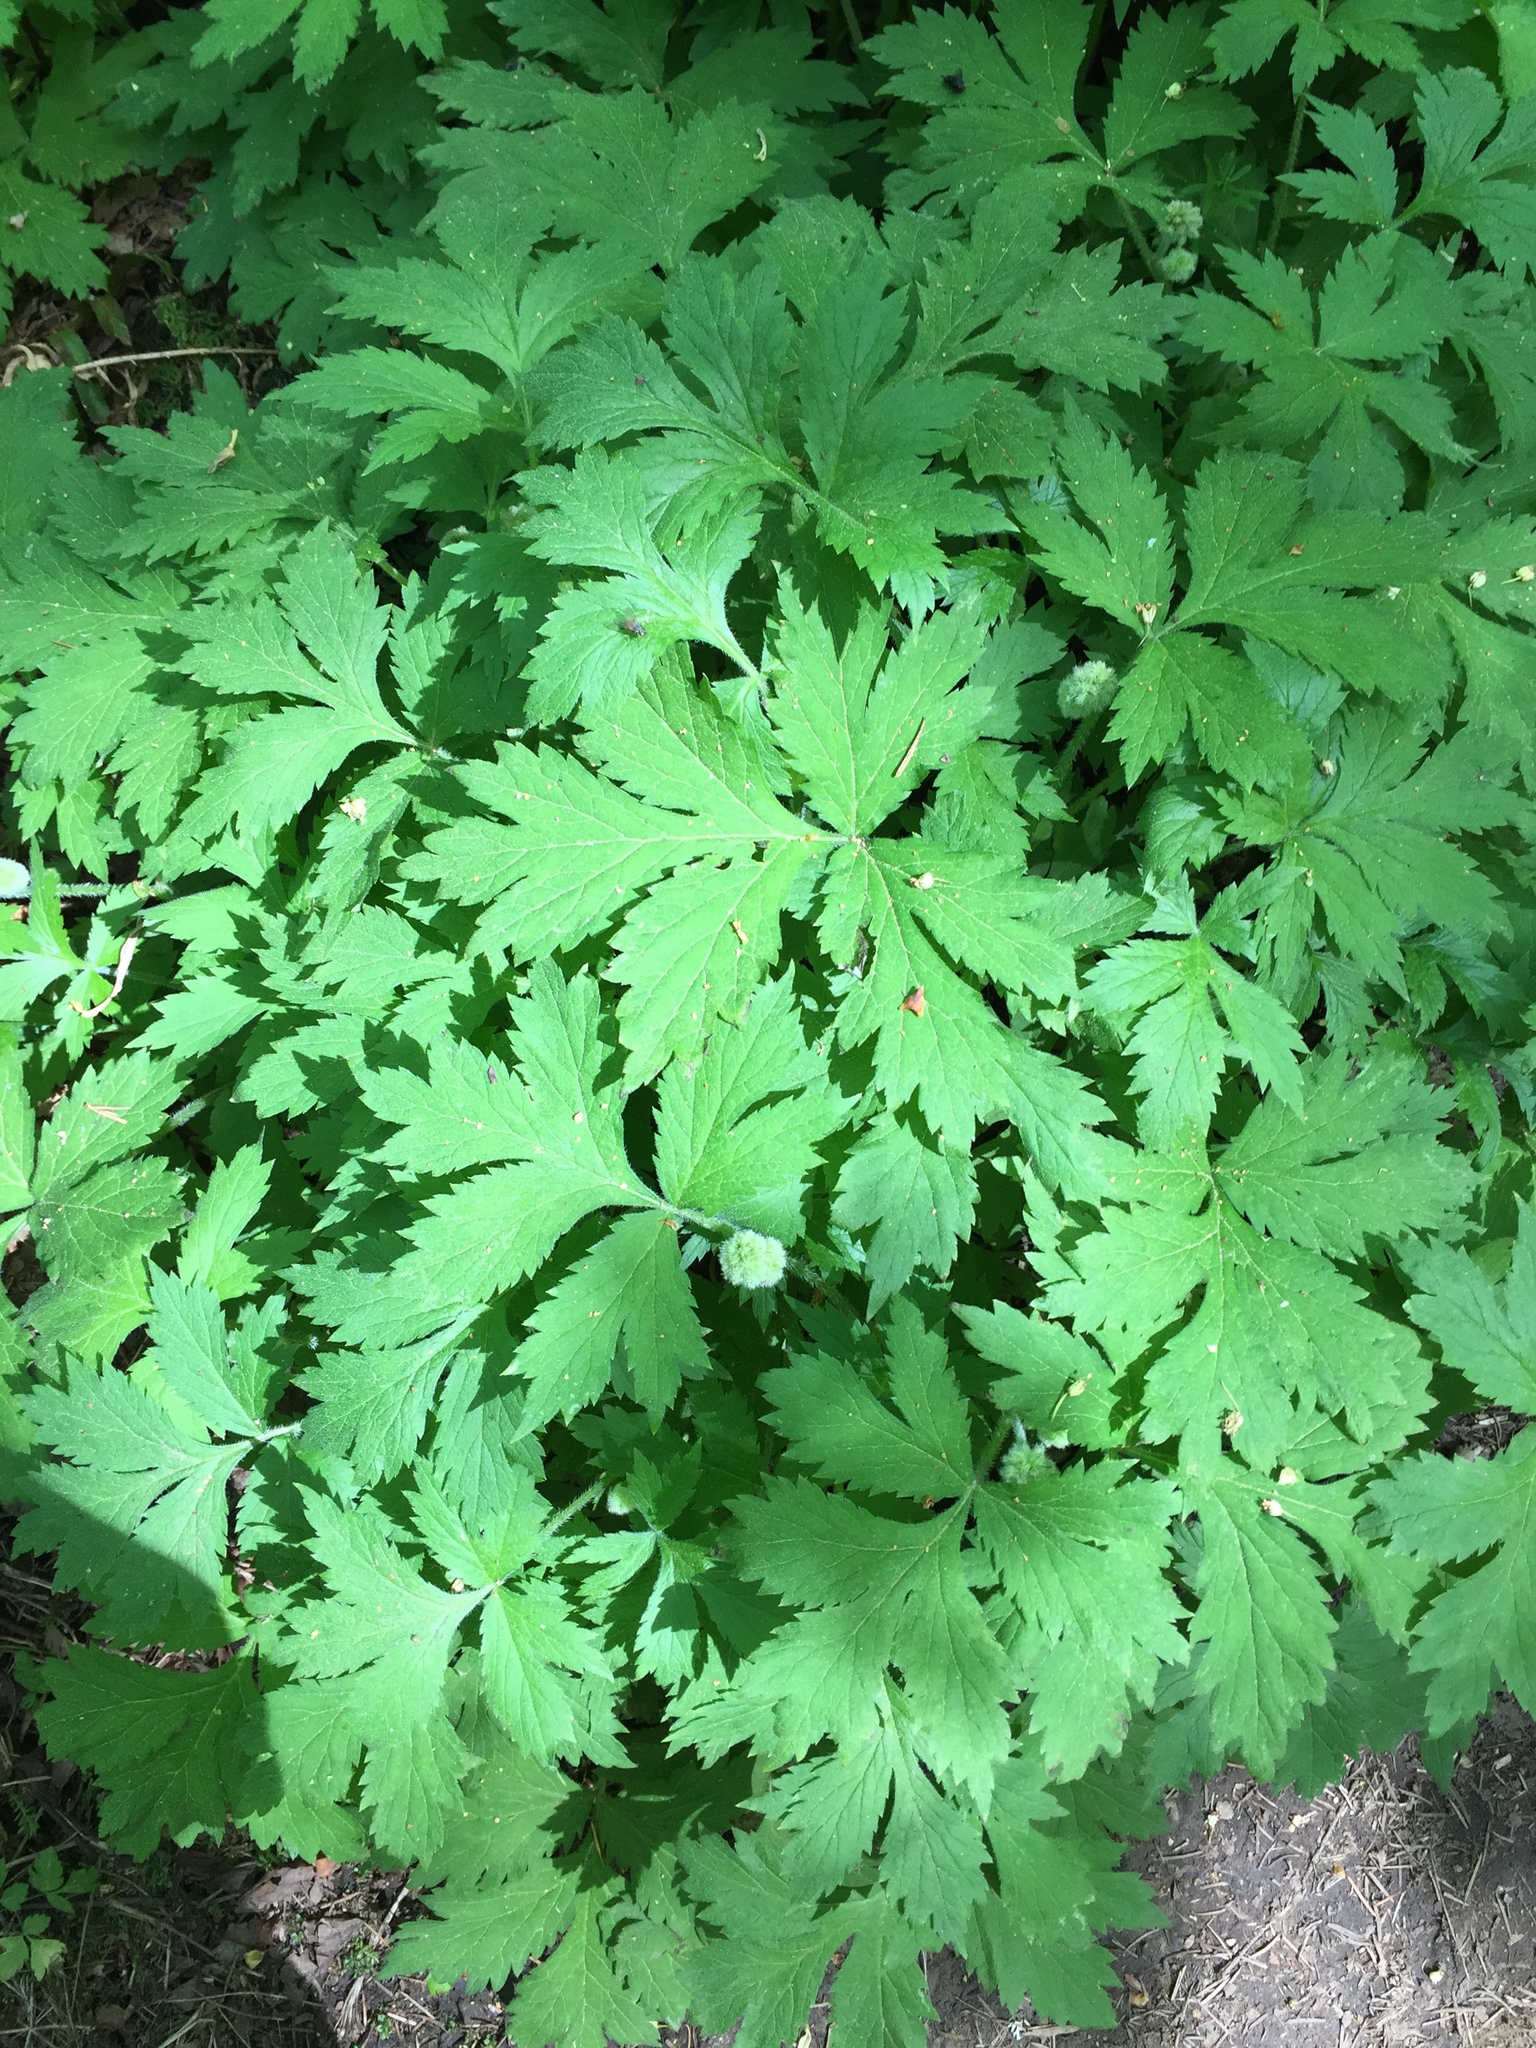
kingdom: Plantae
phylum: Tracheophyta
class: Magnoliopsida
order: Boraginales
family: Hydrophyllaceae
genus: Hydrophyllum
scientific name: Hydrophyllum tenuipes
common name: Pacific waterleaf
